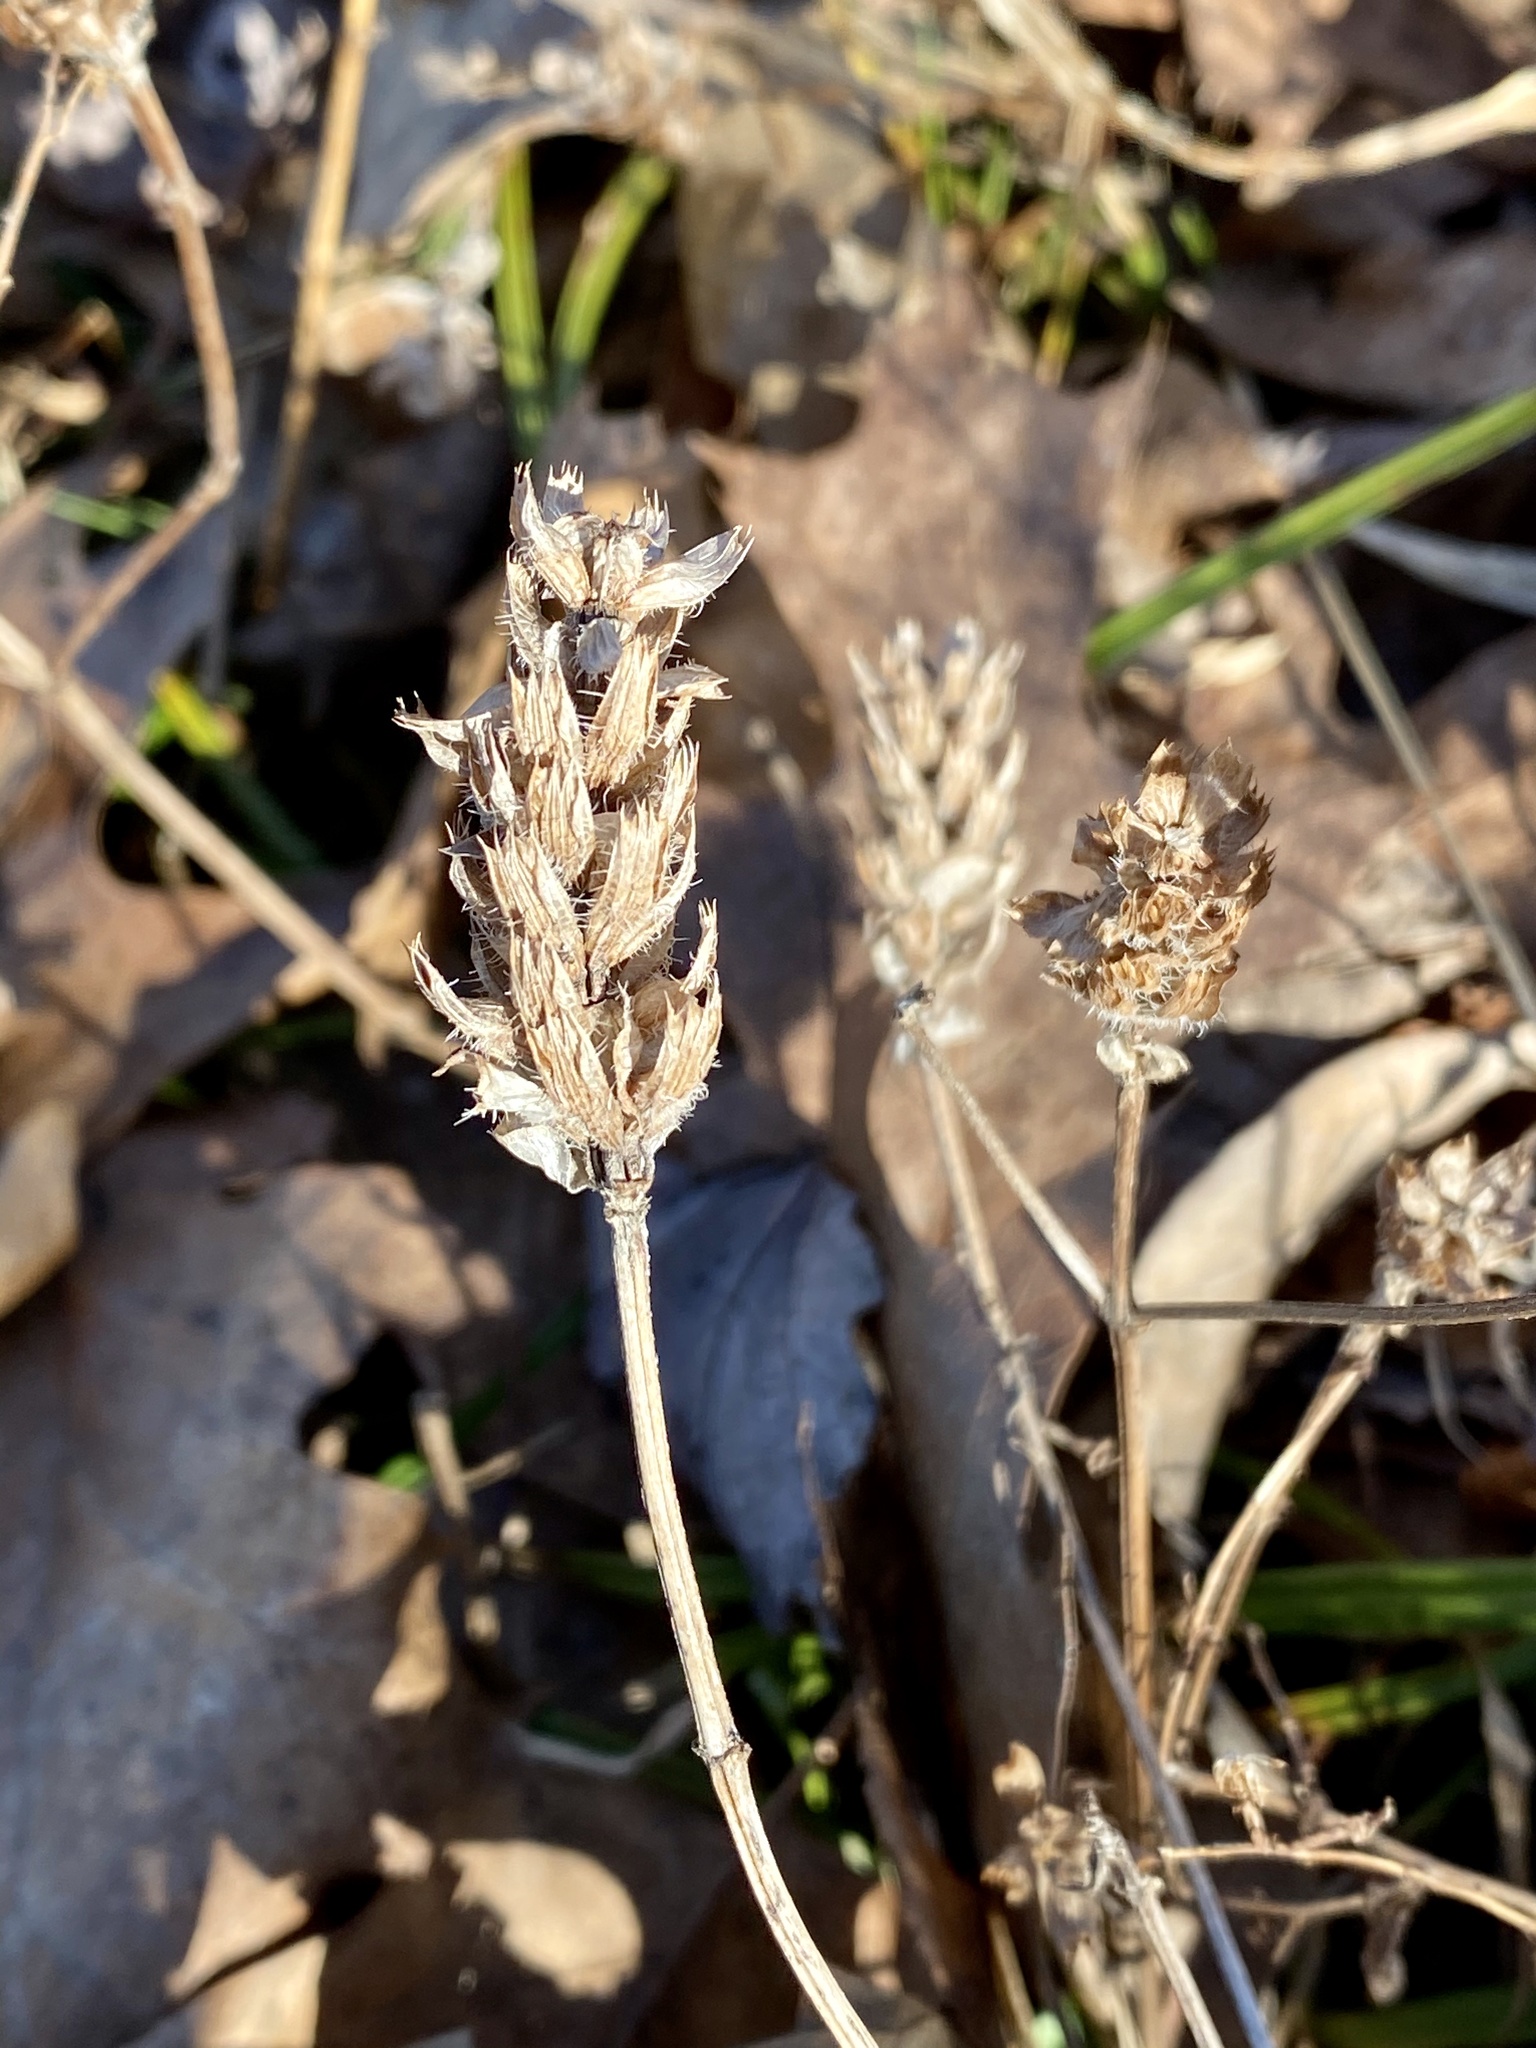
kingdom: Plantae
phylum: Tracheophyta
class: Magnoliopsida
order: Lamiales
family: Lamiaceae
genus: Prunella
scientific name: Prunella vulgaris
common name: Heal-all
